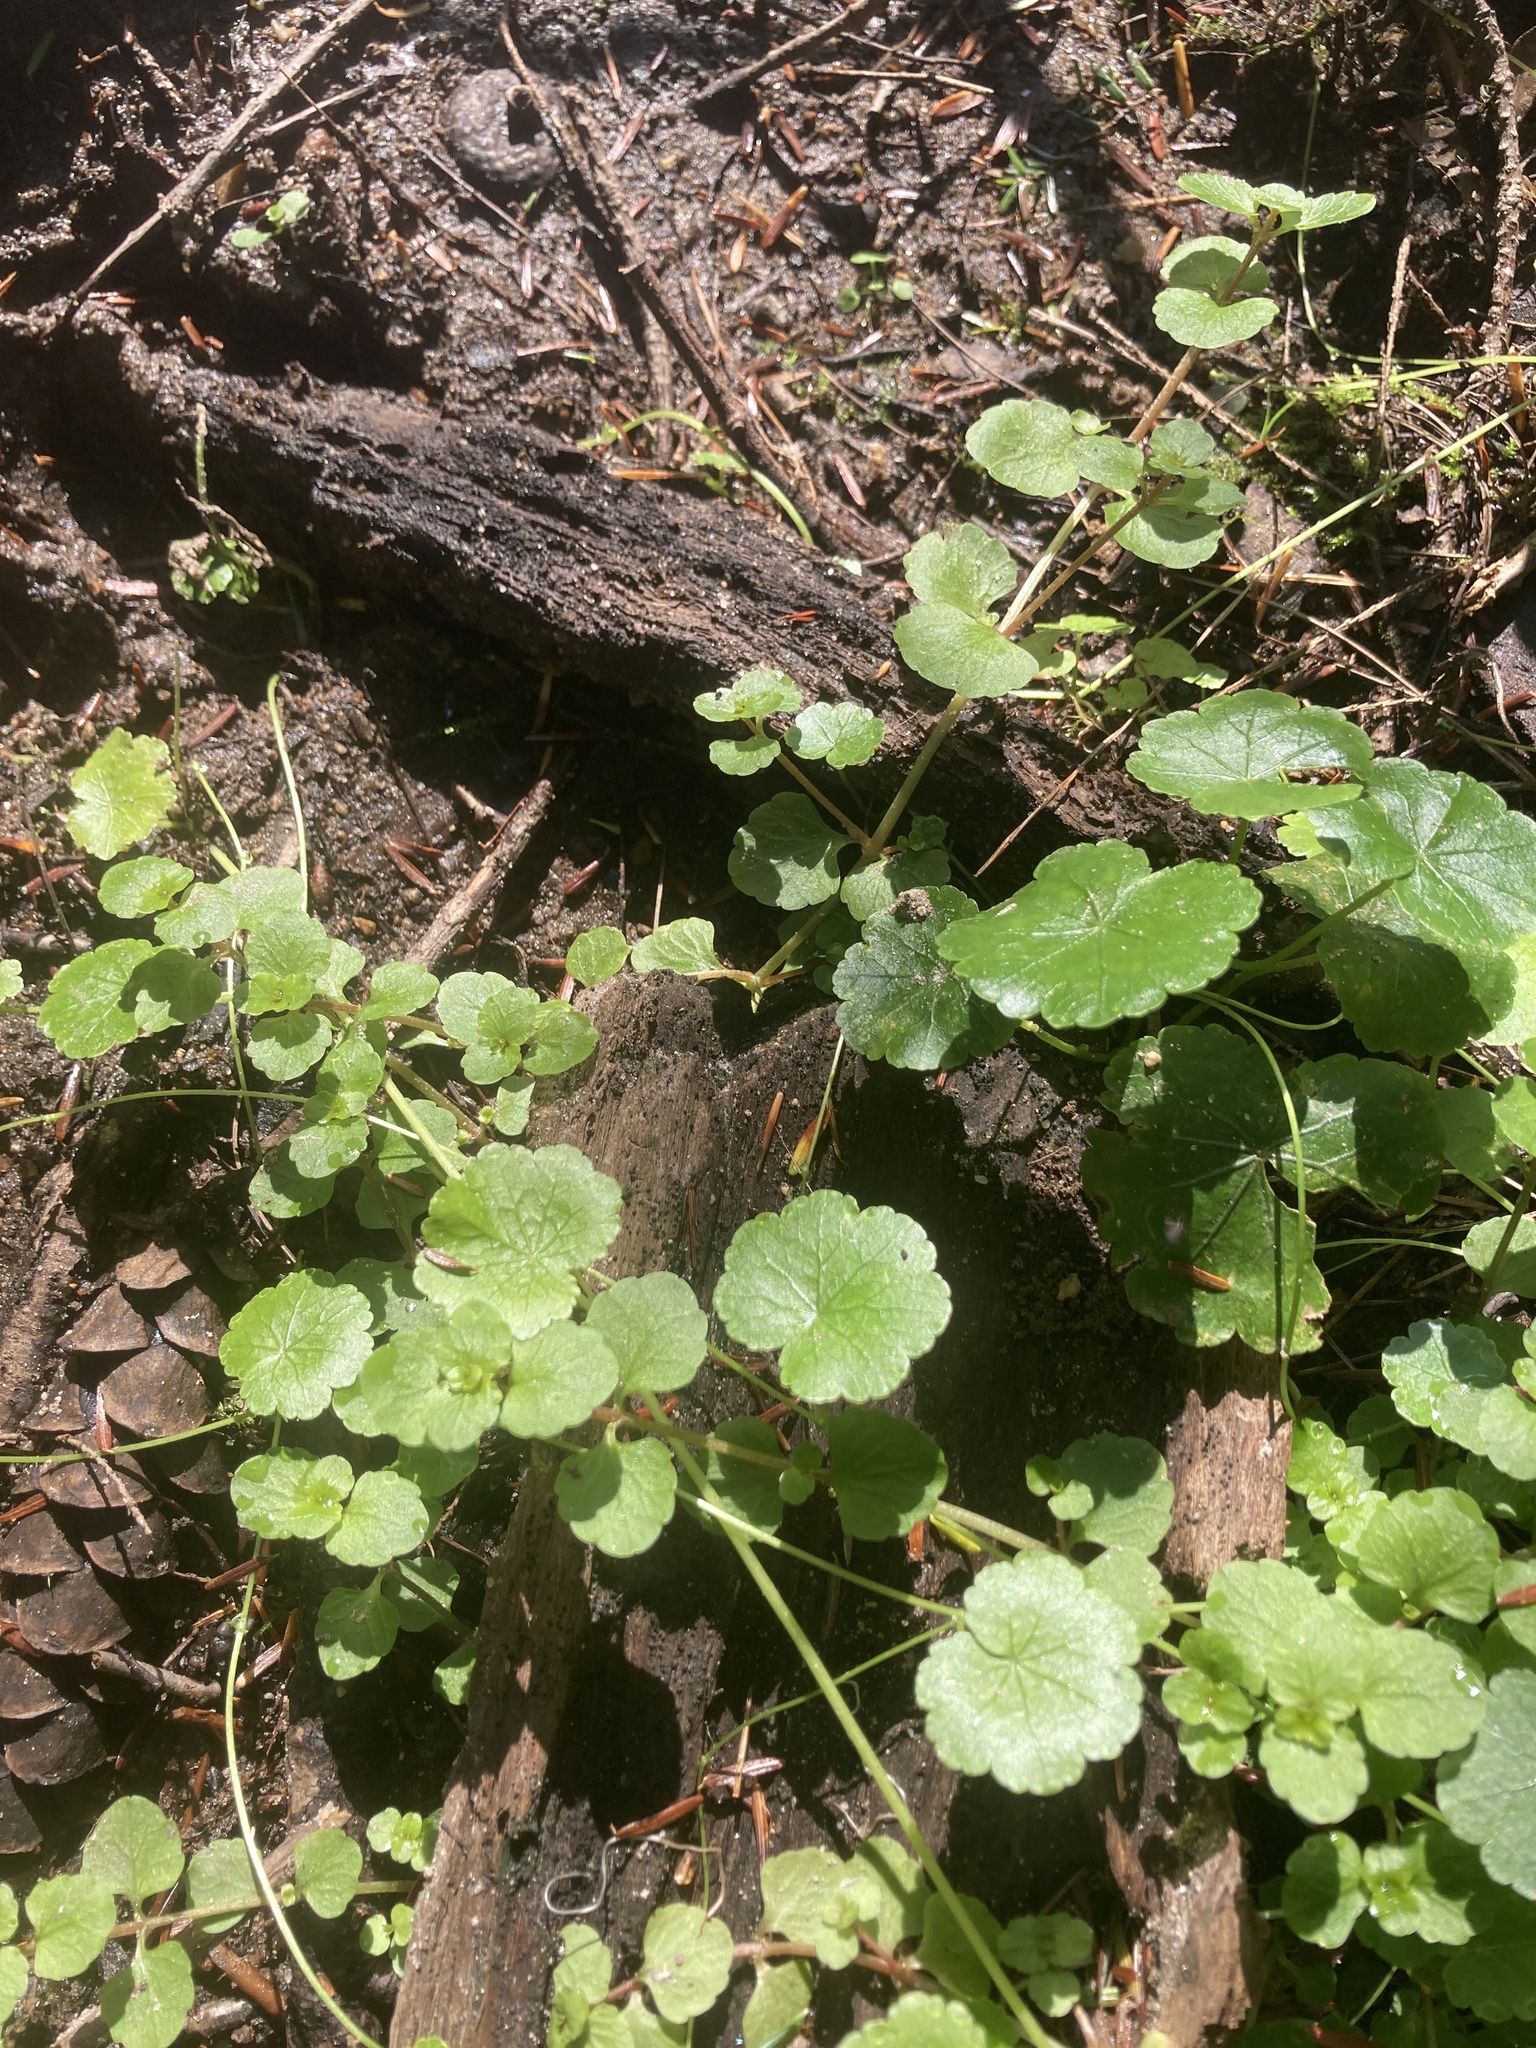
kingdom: Plantae
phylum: Tracheophyta
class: Magnoliopsida
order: Apiales
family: Araliaceae
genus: Hydrocotyle
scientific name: Hydrocotyle americana
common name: American water-pennywort
